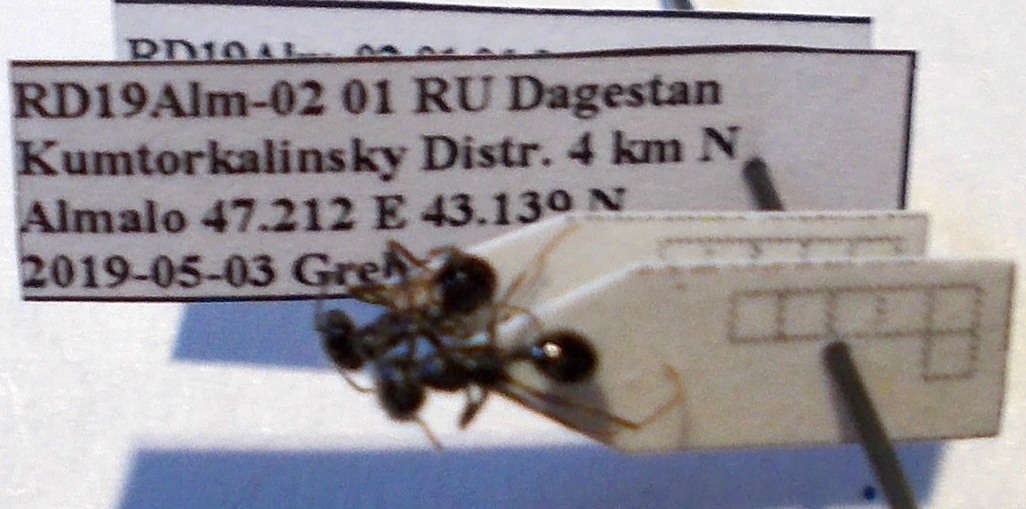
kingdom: Animalia
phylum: Arthropoda
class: Insecta
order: Hymenoptera
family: Formicidae
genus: Messor
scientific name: Messor structor
